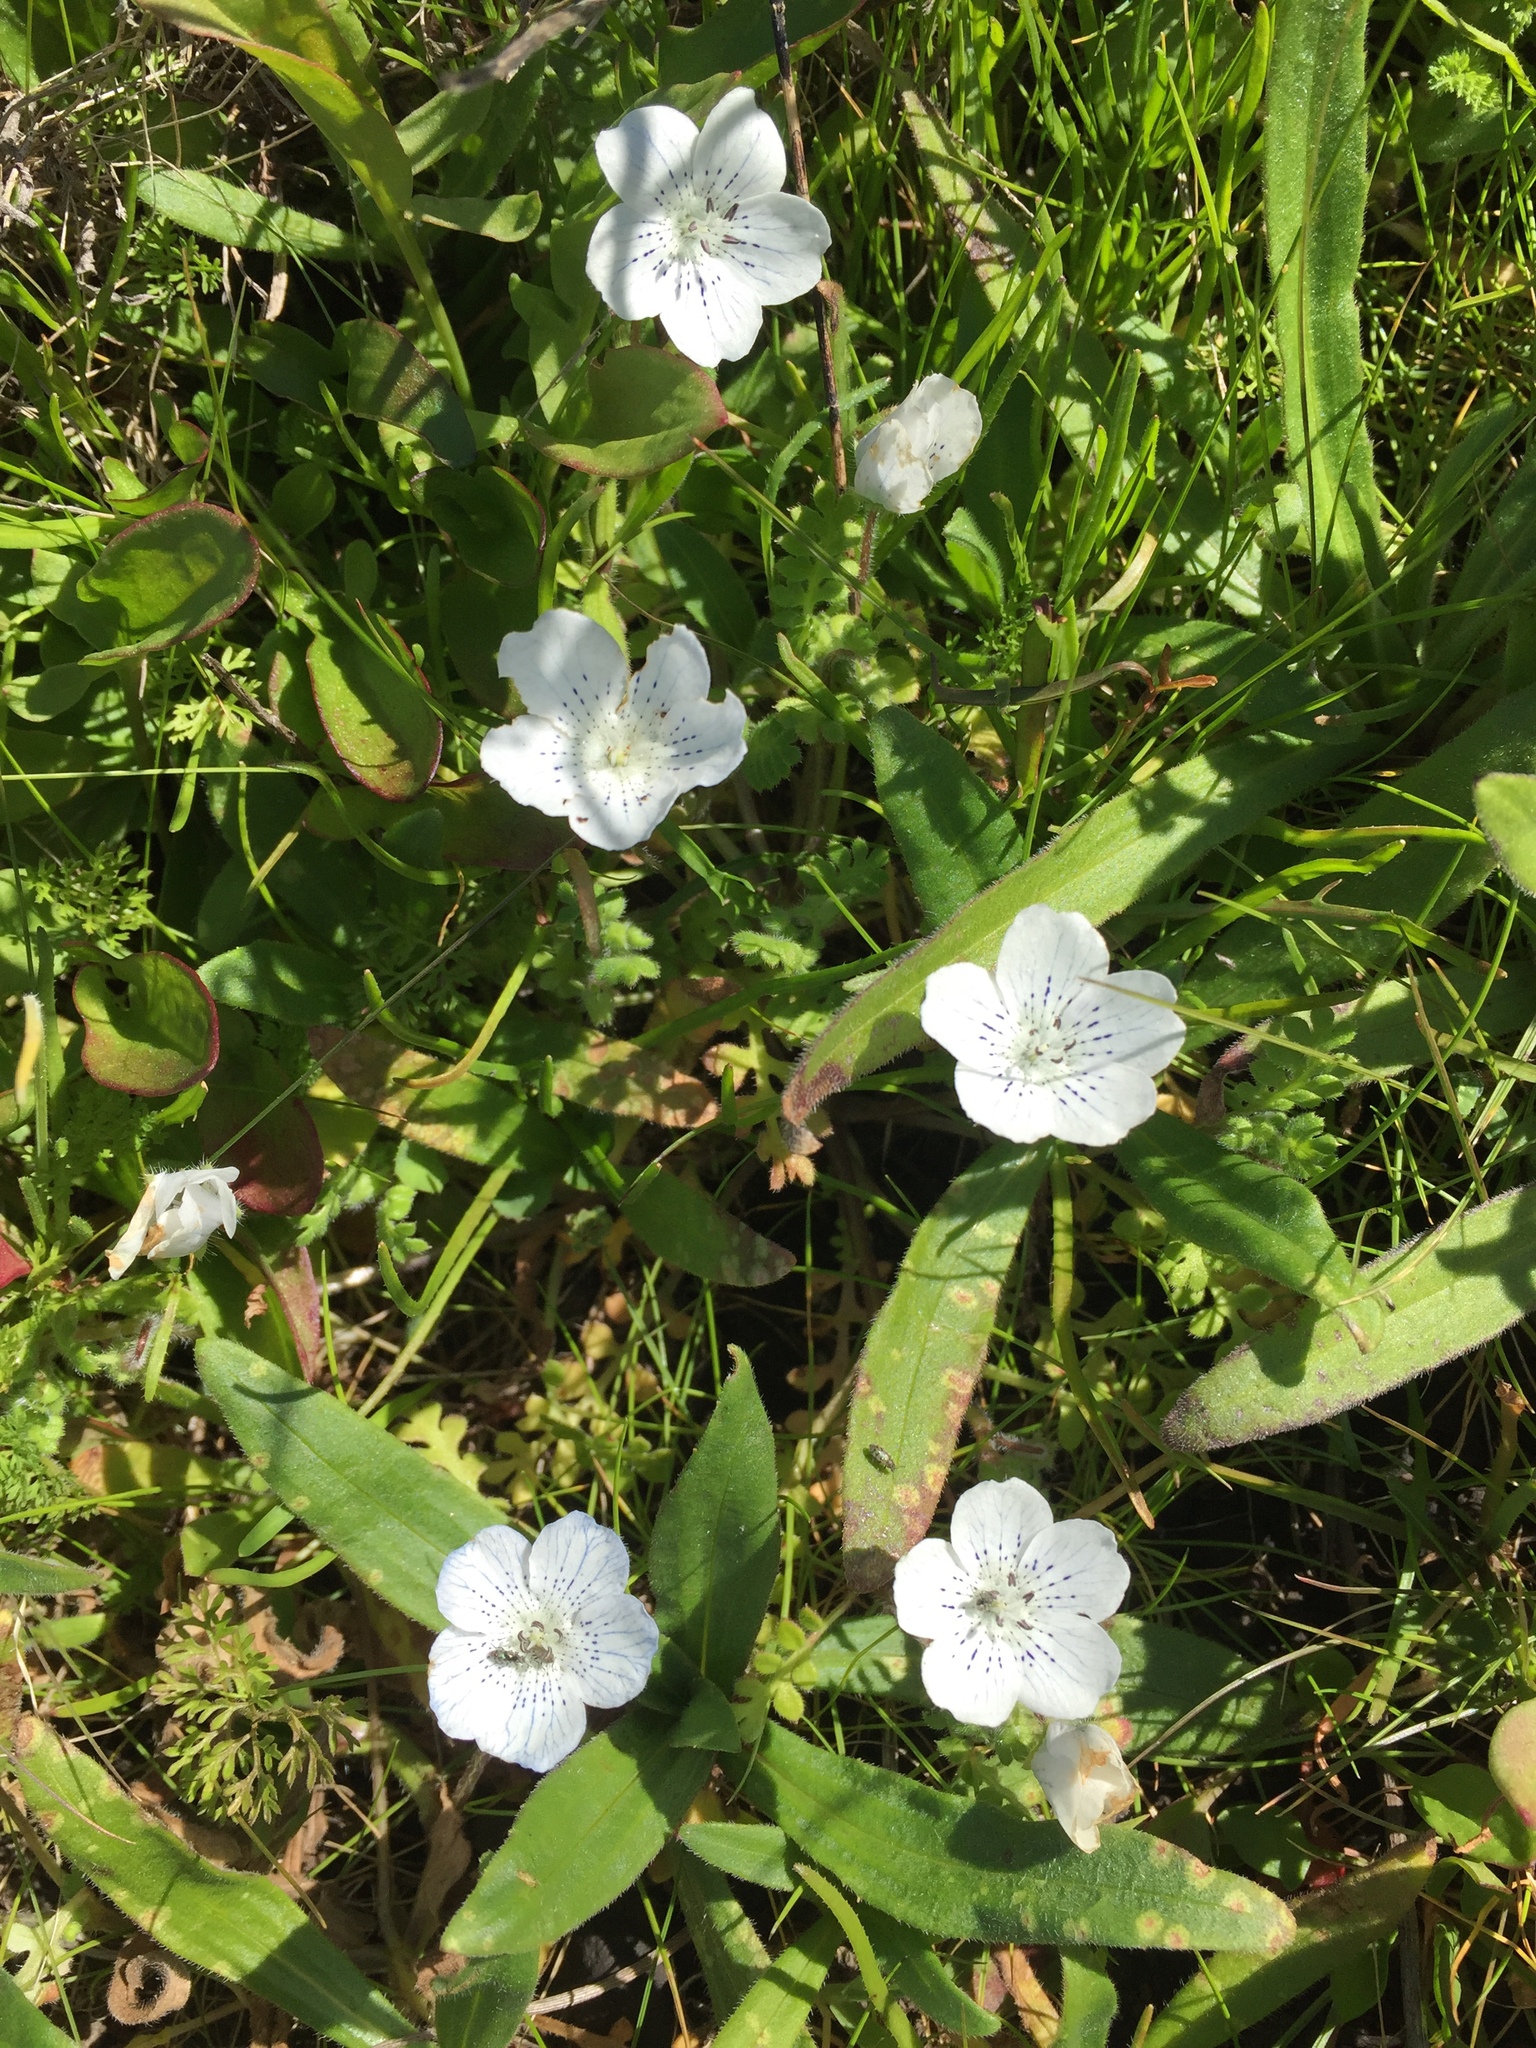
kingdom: Plantae
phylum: Tracheophyta
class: Magnoliopsida
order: Boraginales
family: Hydrophyllaceae
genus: Nemophila
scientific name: Nemophila menziesii
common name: Baby's-blue-eyes
